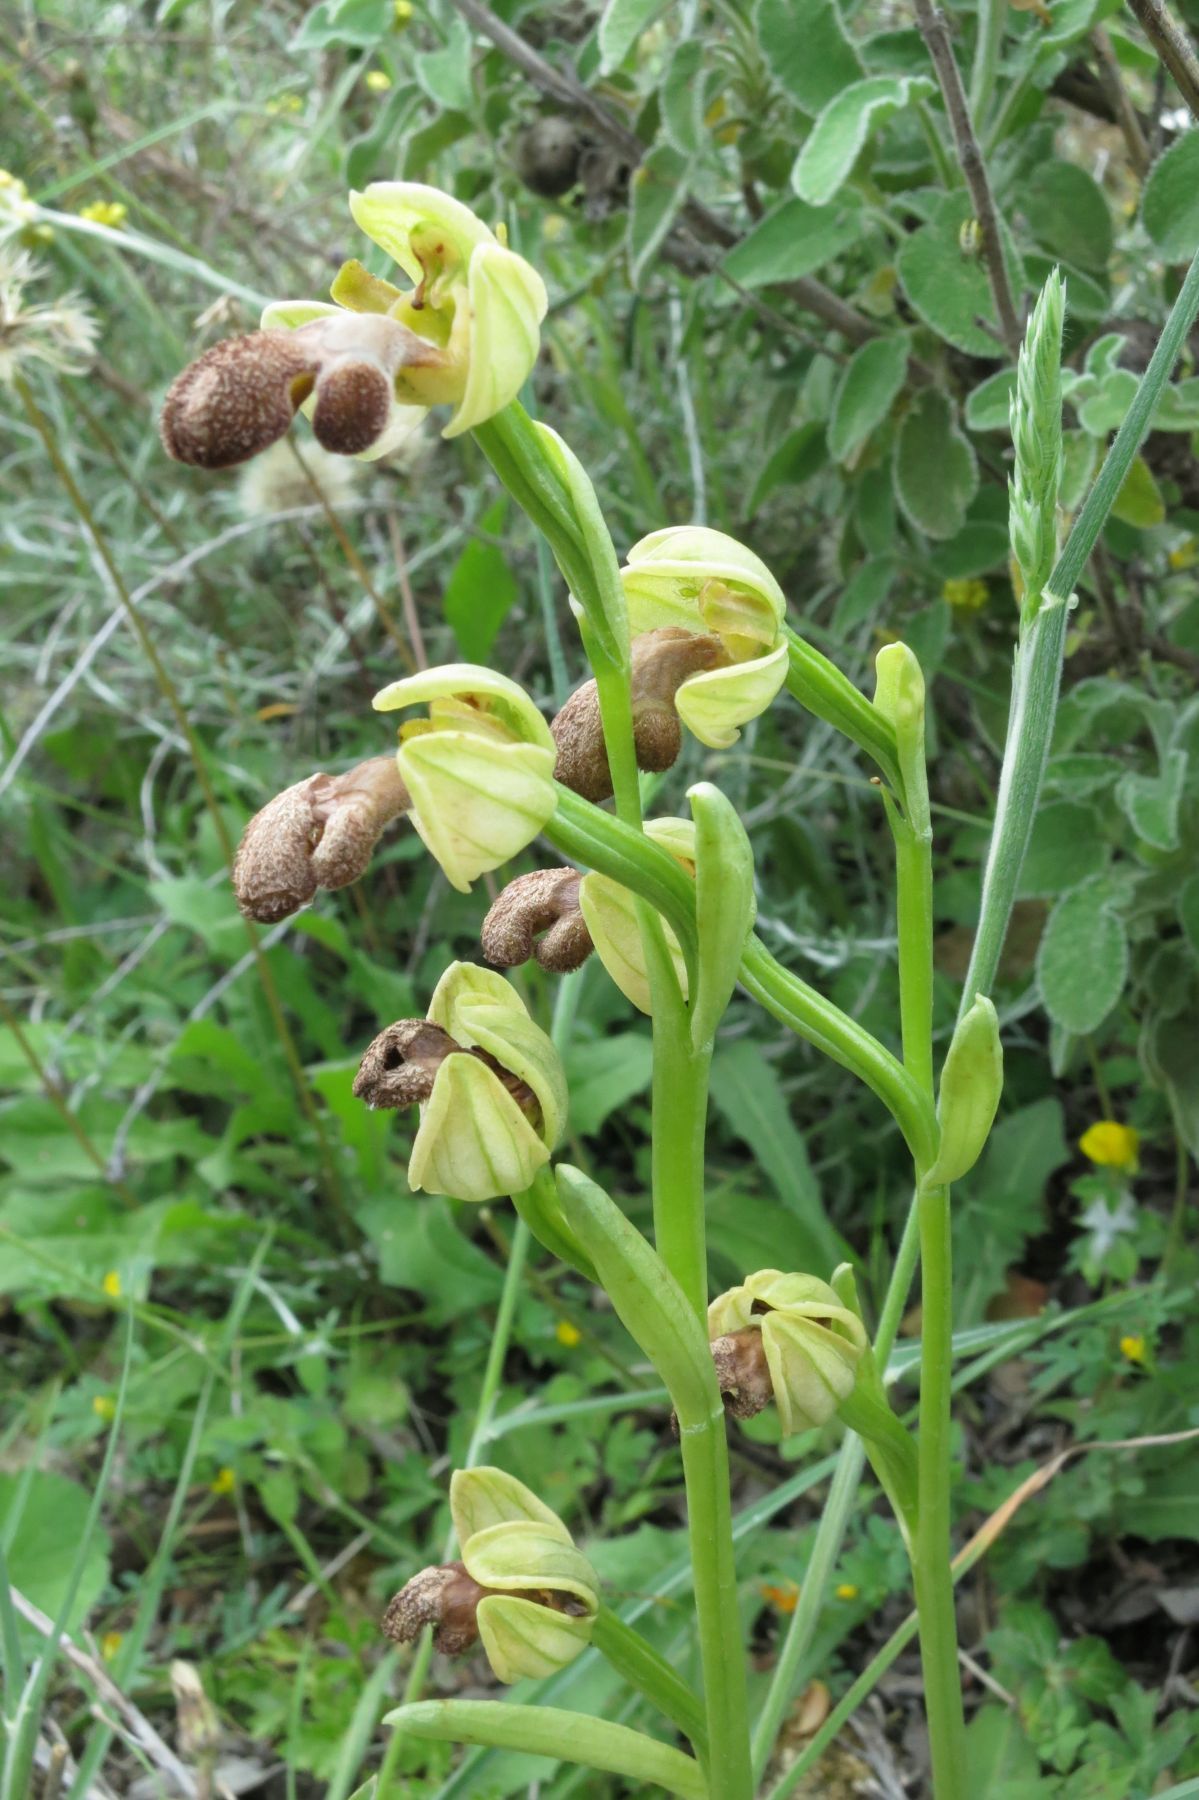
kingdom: Plantae
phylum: Tracheophyta
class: Liliopsida
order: Asparagales
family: Orchidaceae
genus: Ophrys
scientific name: Ophrys omegaifera
